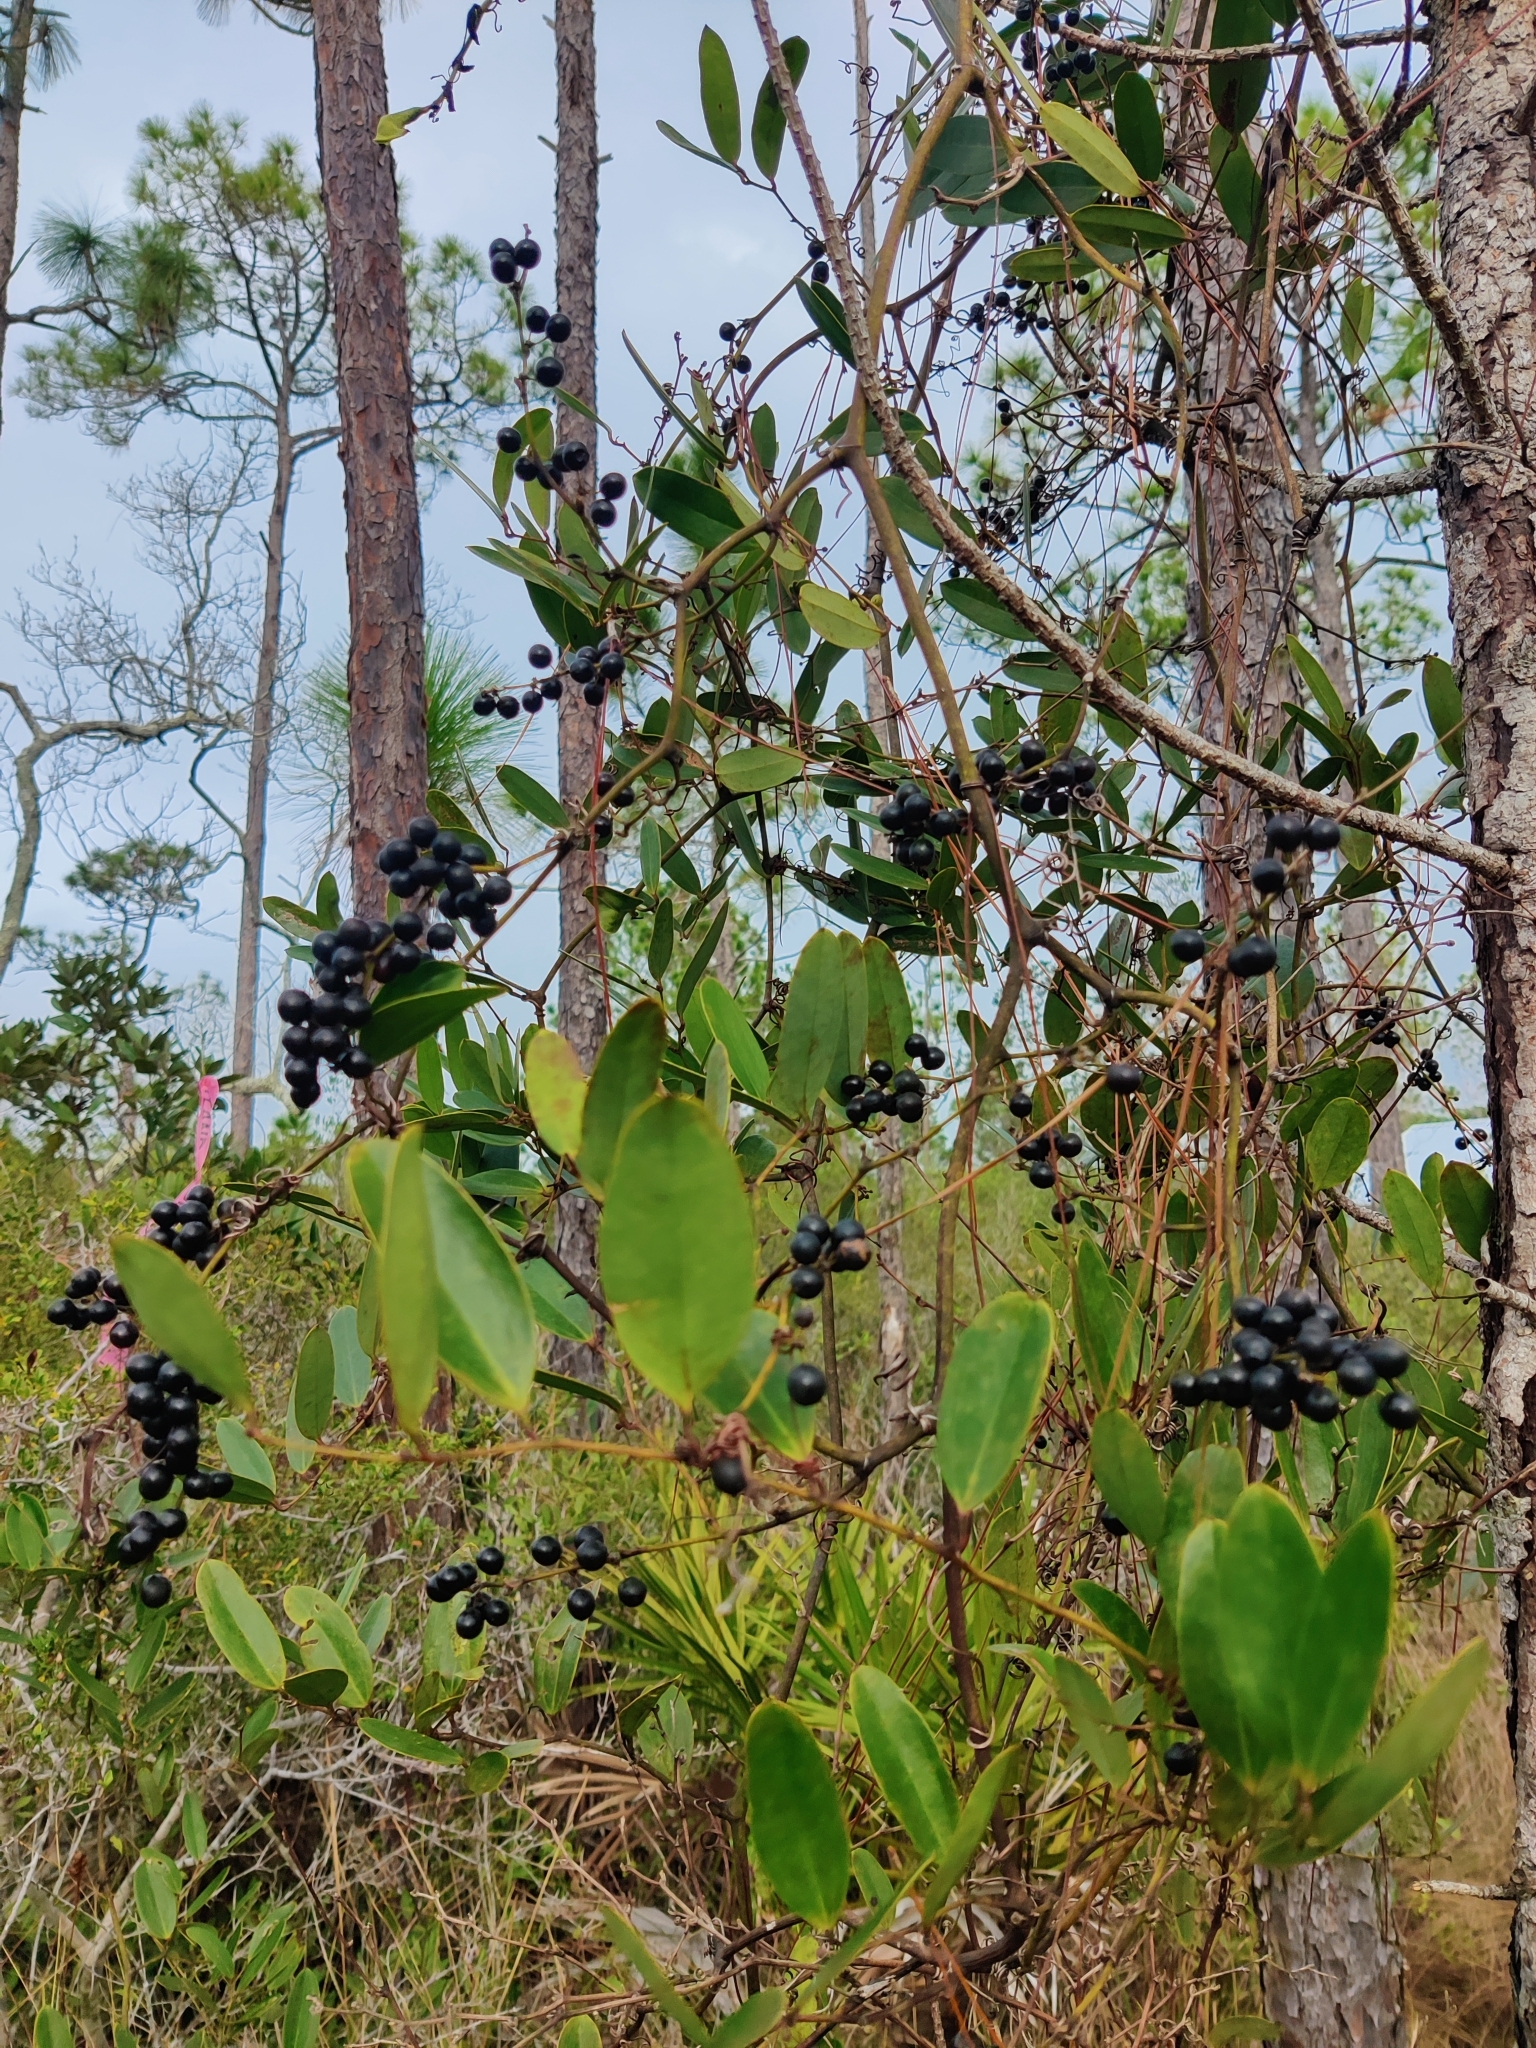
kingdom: Plantae
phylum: Tracheophyta
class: Liliopsida
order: Liliales
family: Smilacaceae
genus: Smilax
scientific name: Smilax laurifolia
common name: Bamboovine
